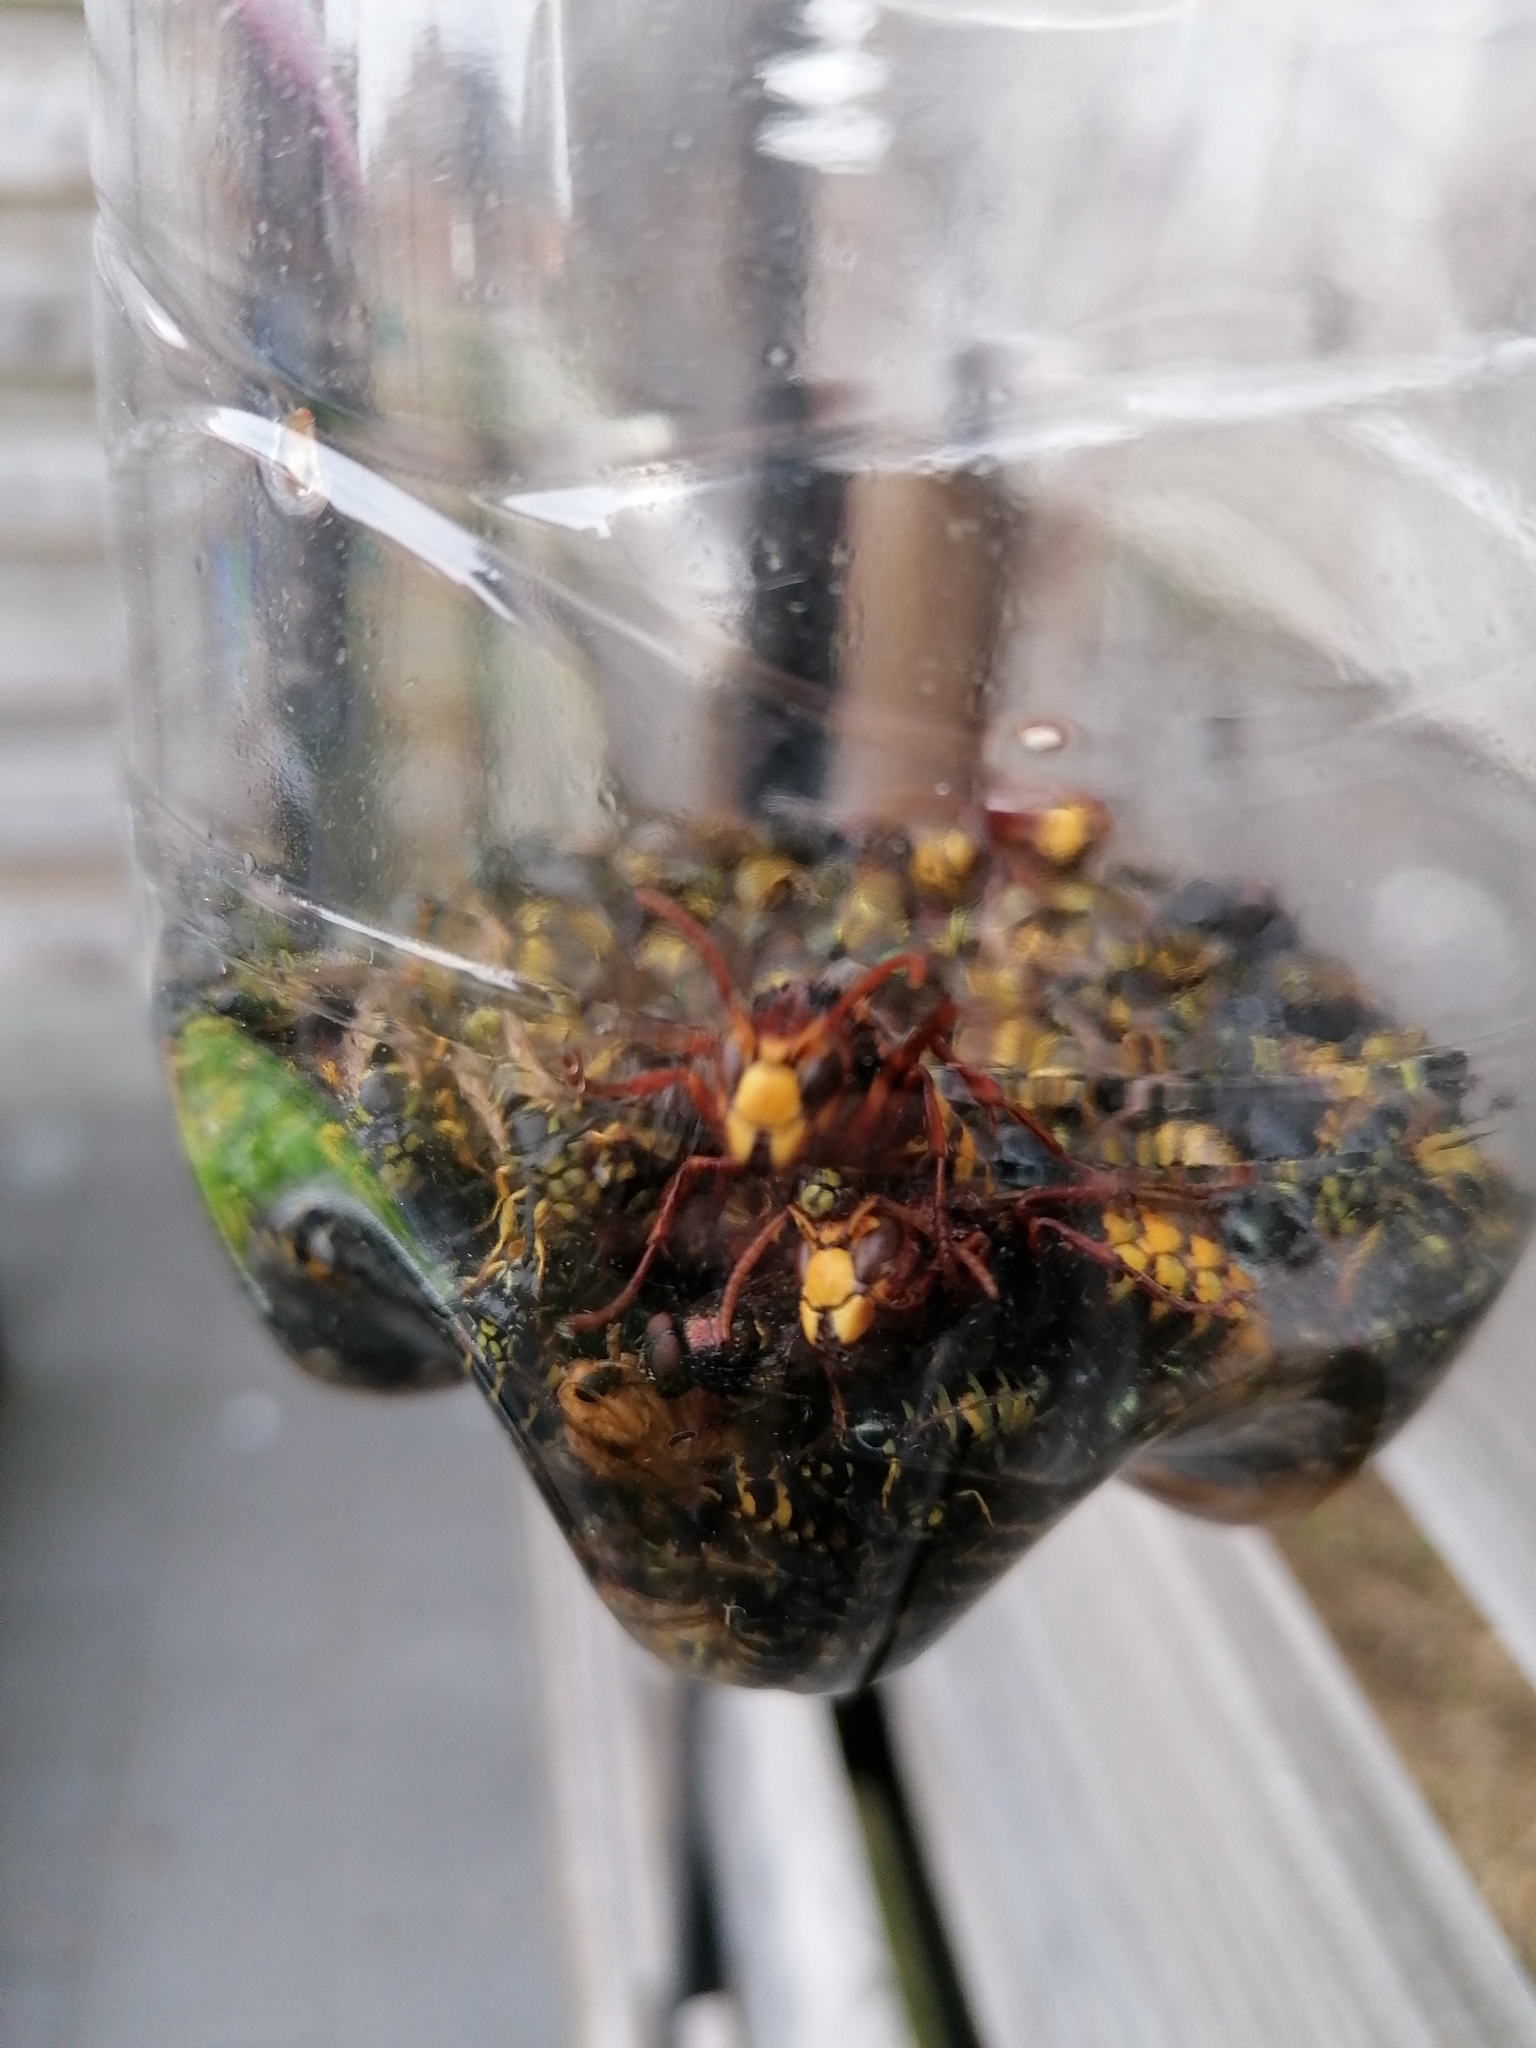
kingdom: Animalia
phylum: Arthropoda
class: Insecta
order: Hymenoptera
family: Vespidae
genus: Vespa
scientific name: Vespa crabro
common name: Hornet
